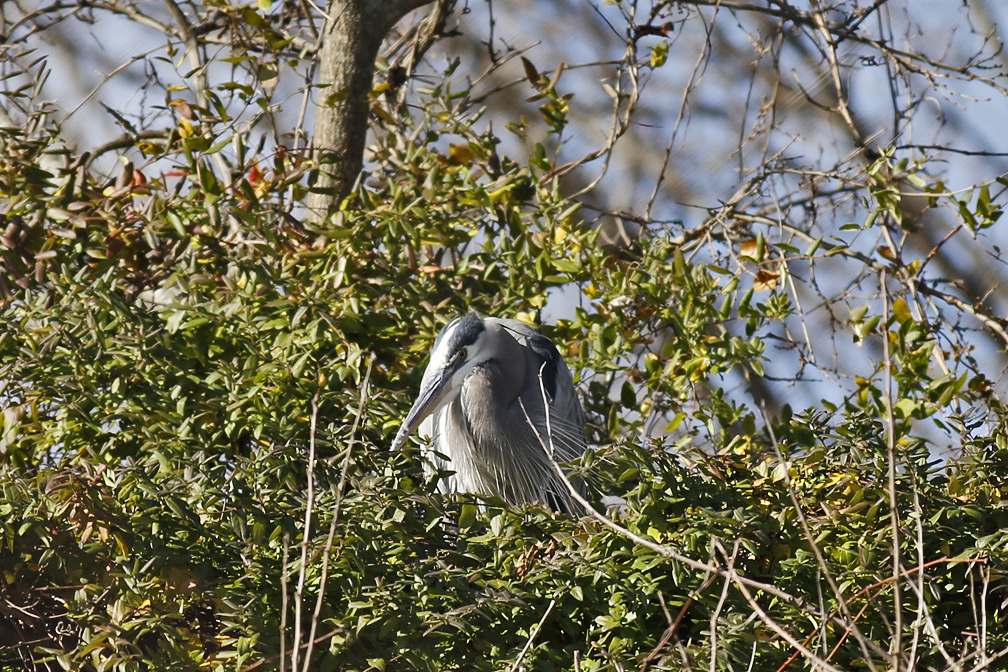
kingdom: Animalia
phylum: Chordata
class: Aves
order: Pelecaniformes
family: Ardeidae
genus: Ardea
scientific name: Ardea herodias
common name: Great blue heron
